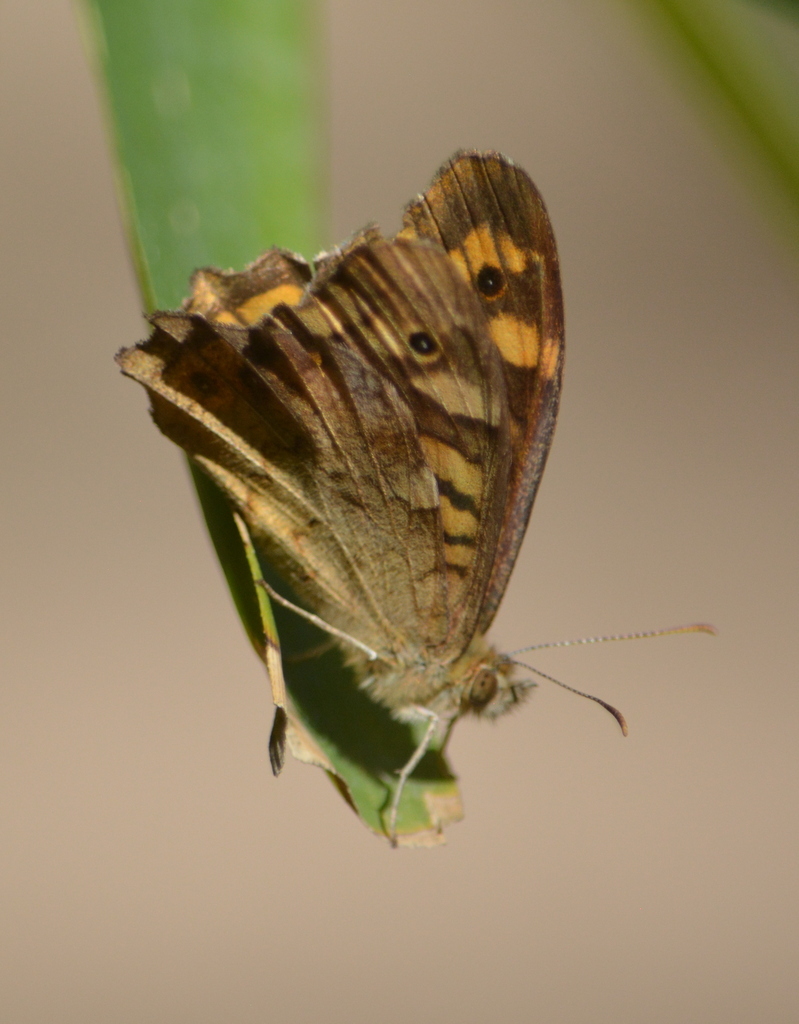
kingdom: Animalia
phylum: Arthropoda
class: Insecta
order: Lepidoptera
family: Nymphalidae
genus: Pararge
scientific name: Pararge aegeria
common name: Speckled wood
